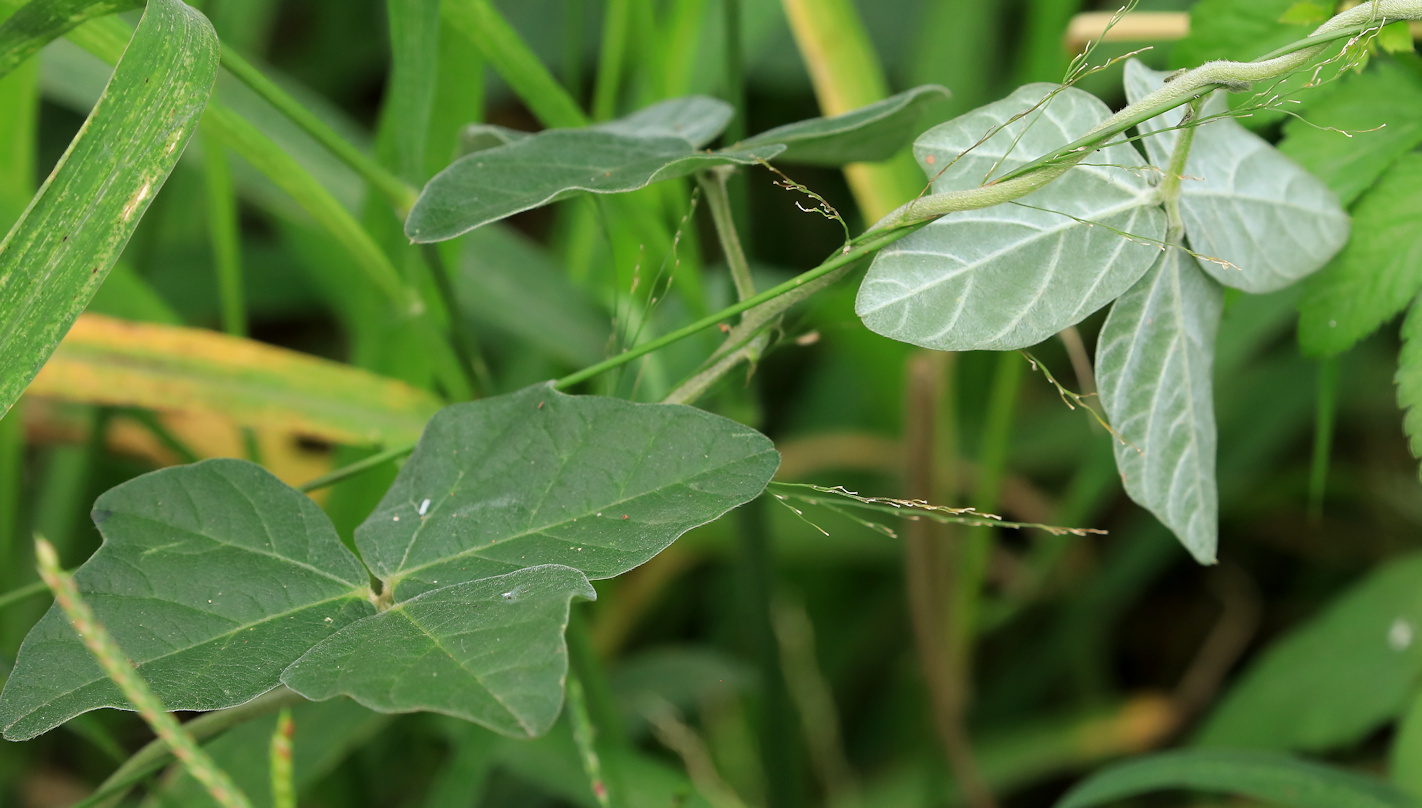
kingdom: Plantae
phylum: Tracheophyta
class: Magnoliopsida
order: Fabales
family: Fabaceae
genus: Macroptilium
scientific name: Macroptilium atropurpureum
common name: Purple bushbean
